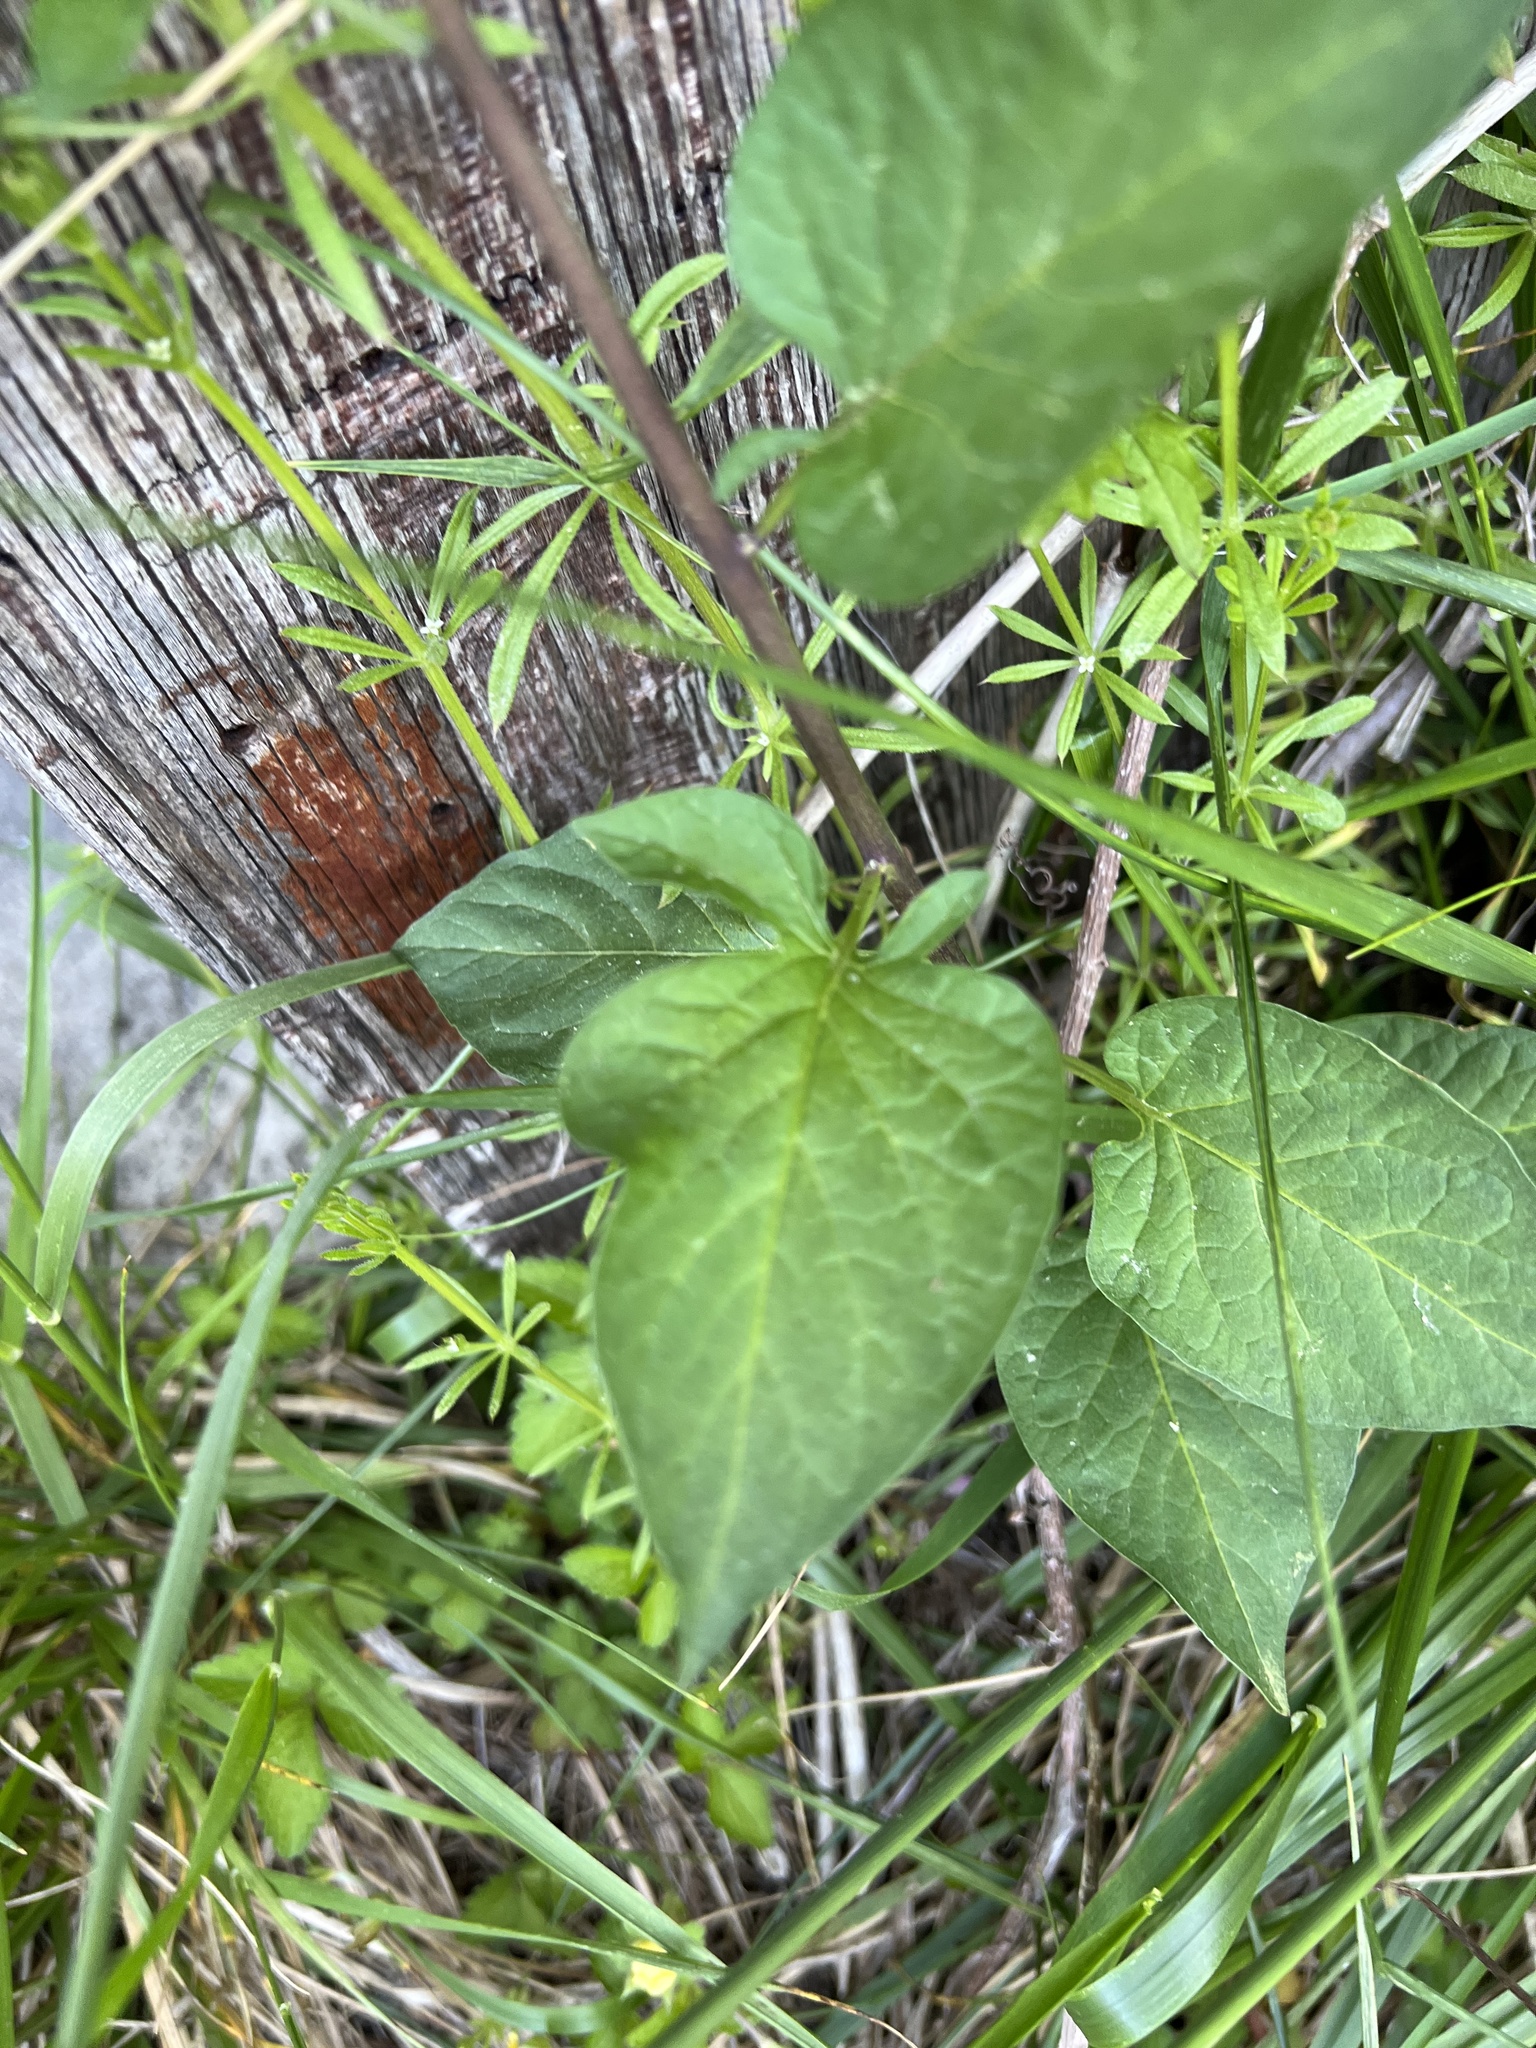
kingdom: Plantae
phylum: Tracheophyta
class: Magnoliopsida
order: Solanales
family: Solanaceae
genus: Solanum
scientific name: Solanum dulcamara
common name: Climbing nightshade
